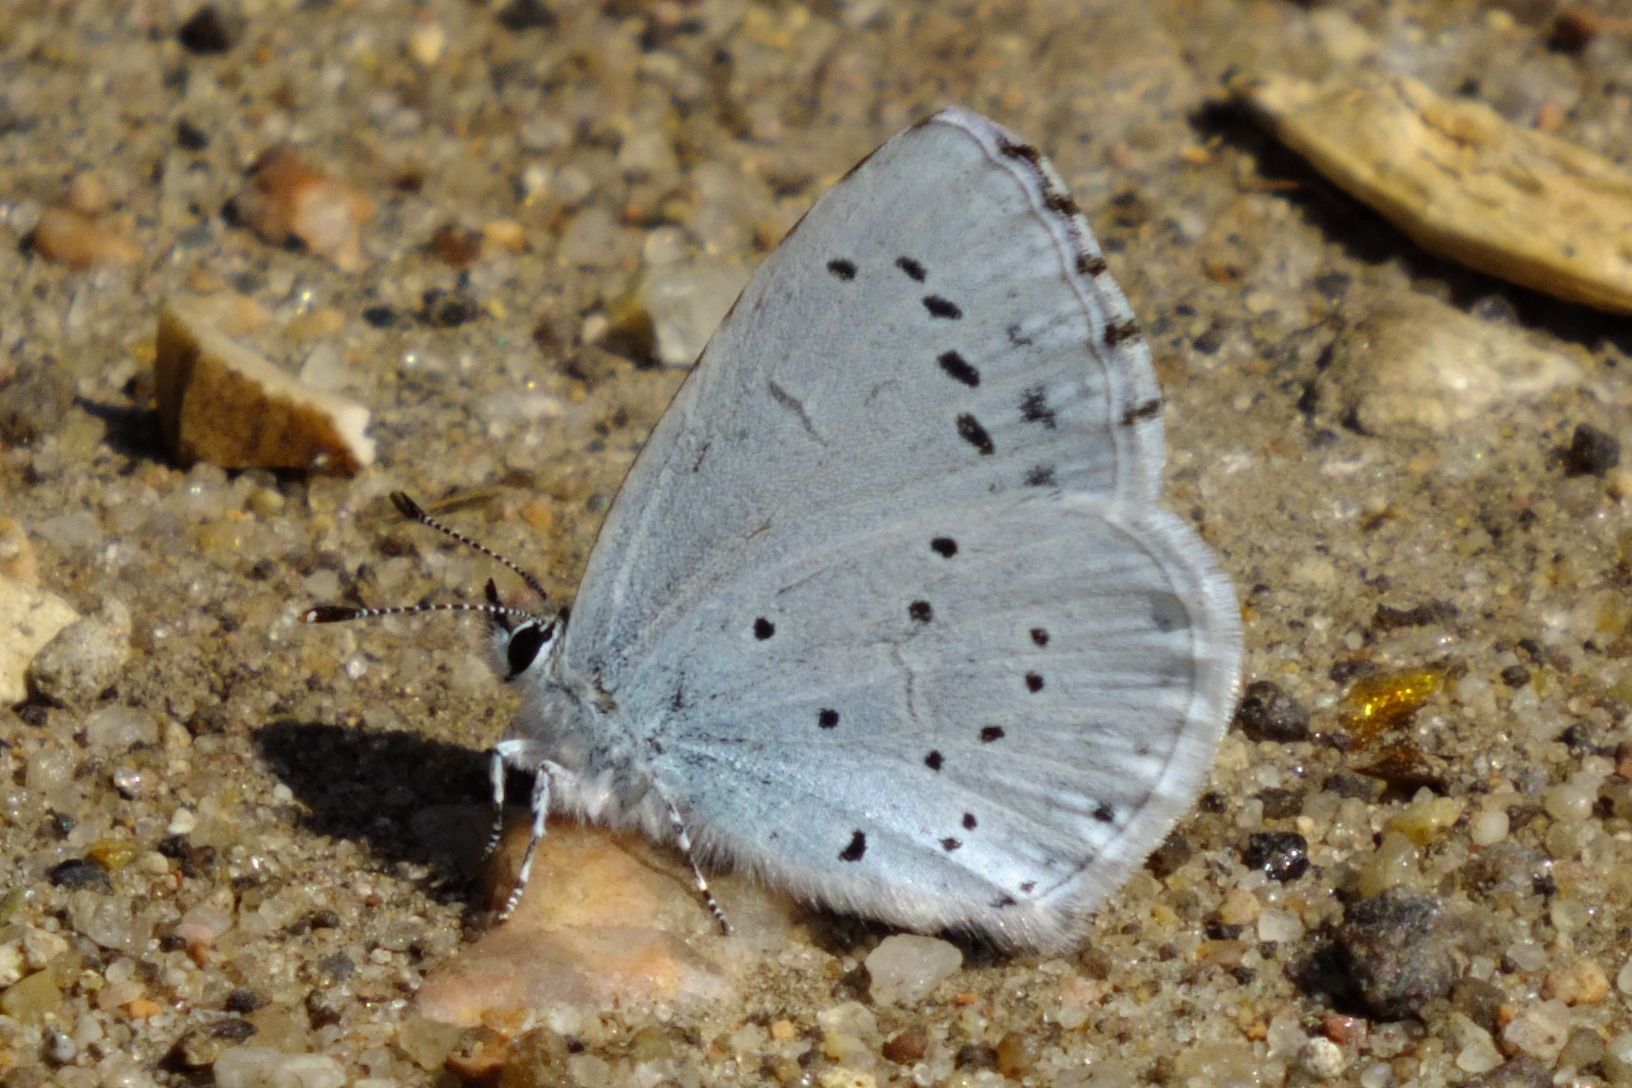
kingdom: Animalia
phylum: Arthropoda
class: Insecta
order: Lepidoptera
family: Lycaenidae
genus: Celastrina
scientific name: Celastrina argiolus
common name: Holly blue
